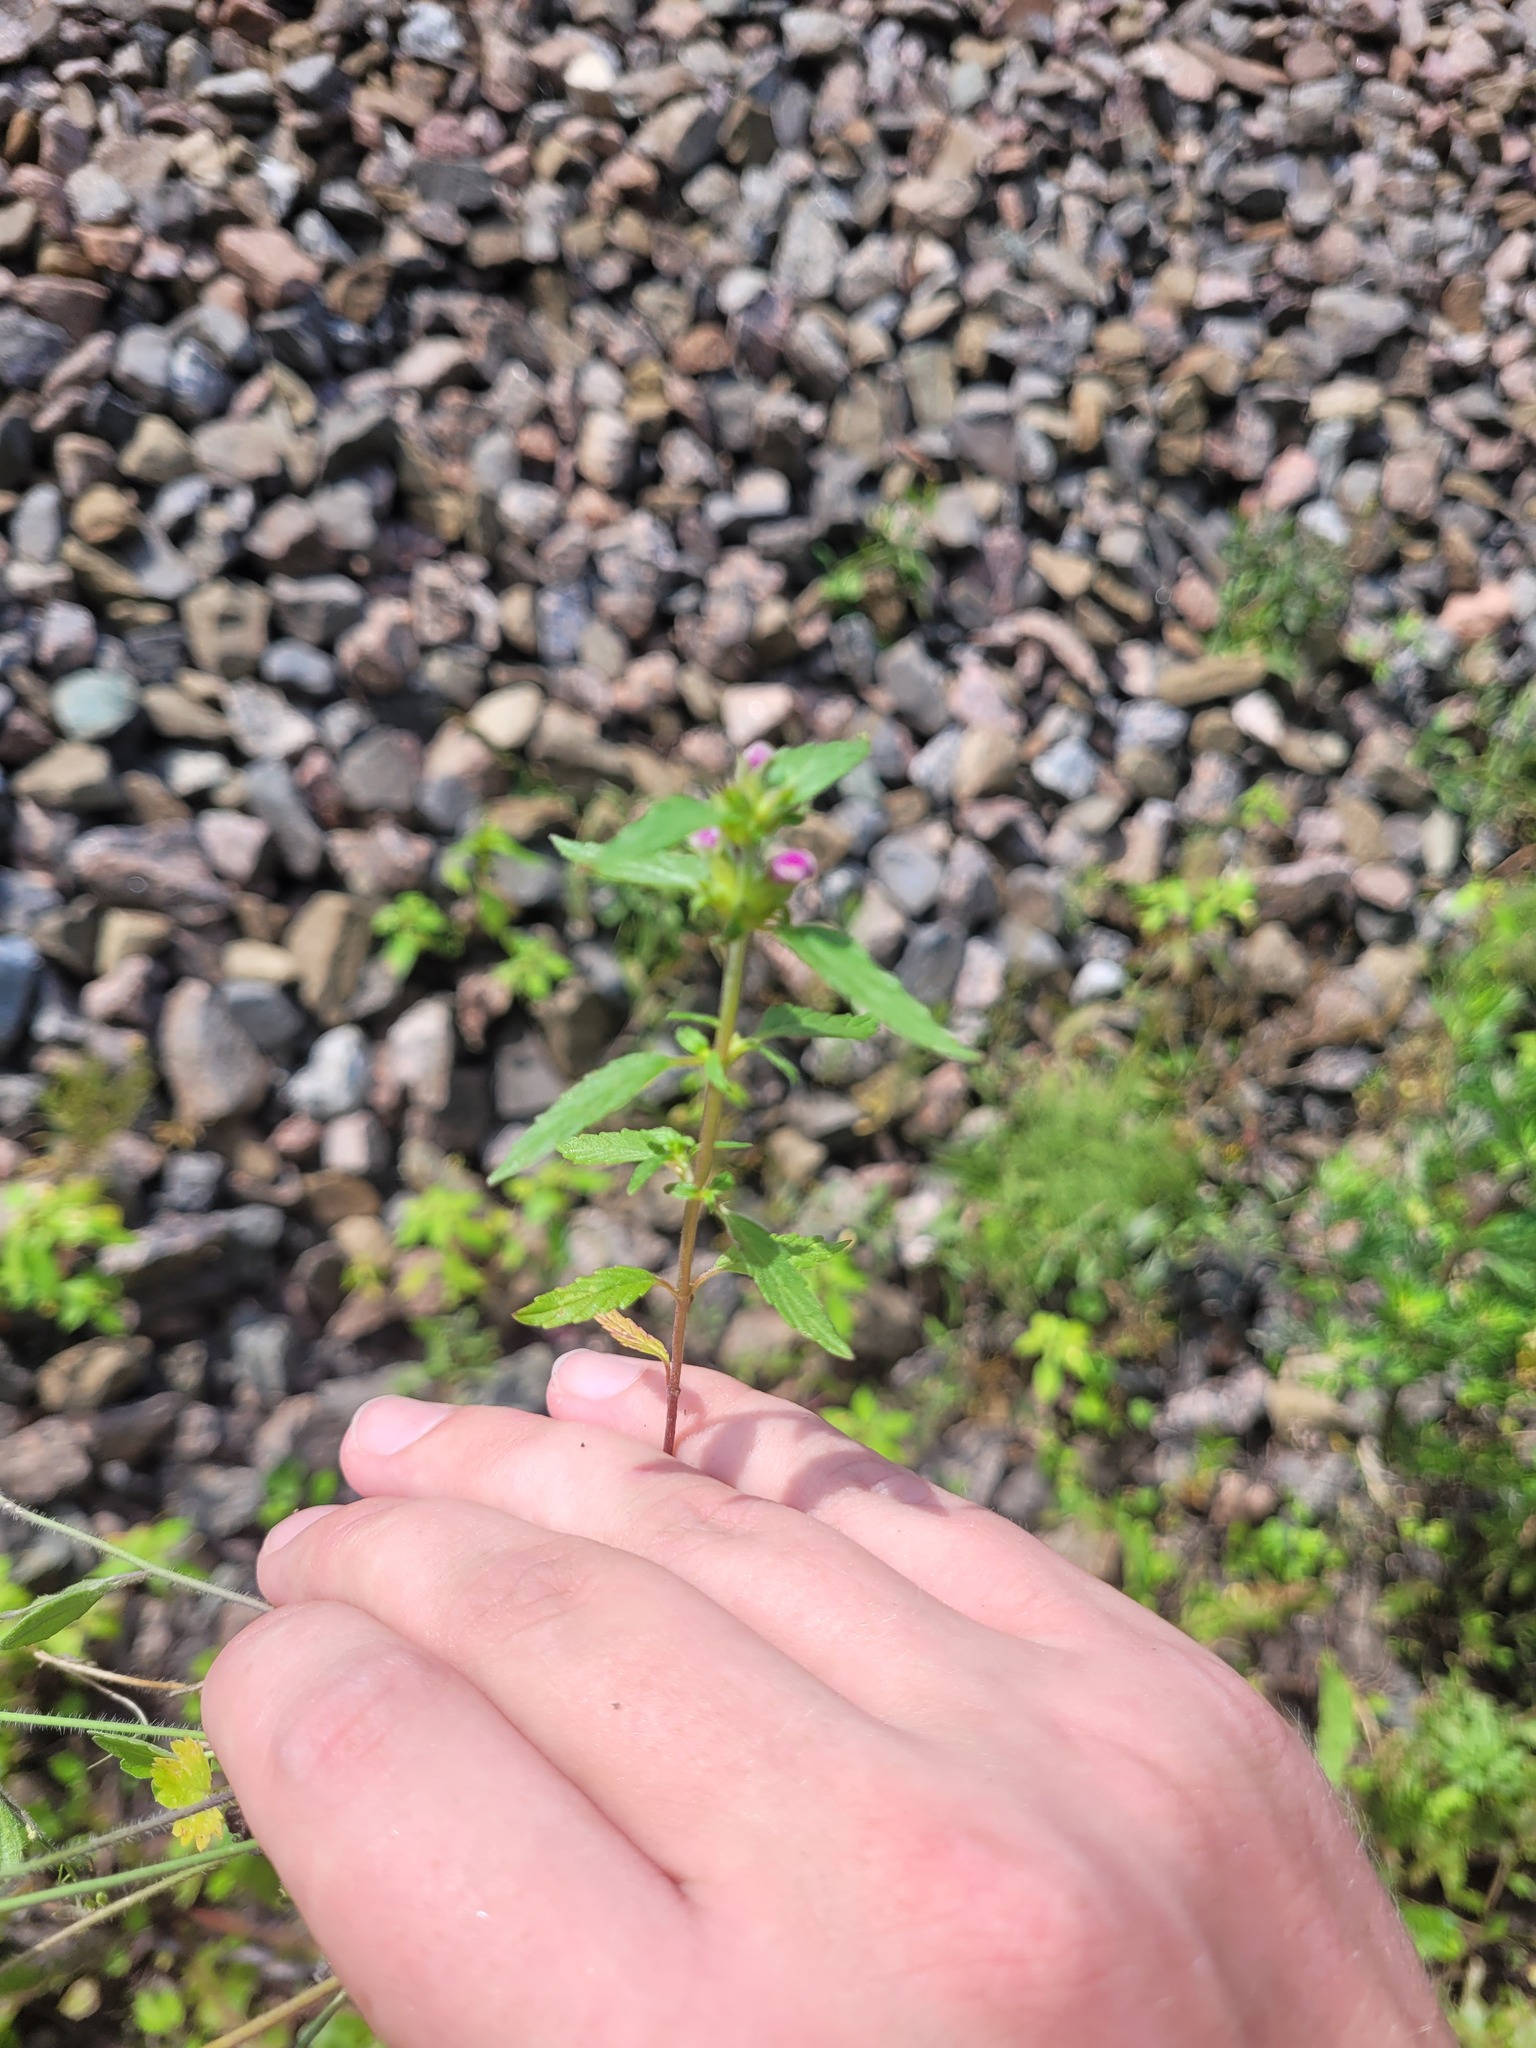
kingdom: Plantae
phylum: Tracheophyta
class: Magnoliopsida
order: Lamiales
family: Lamiaceae
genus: Galeopsis
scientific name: Galeopsis ladanum
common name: Broad-leaved hemp-nettle
